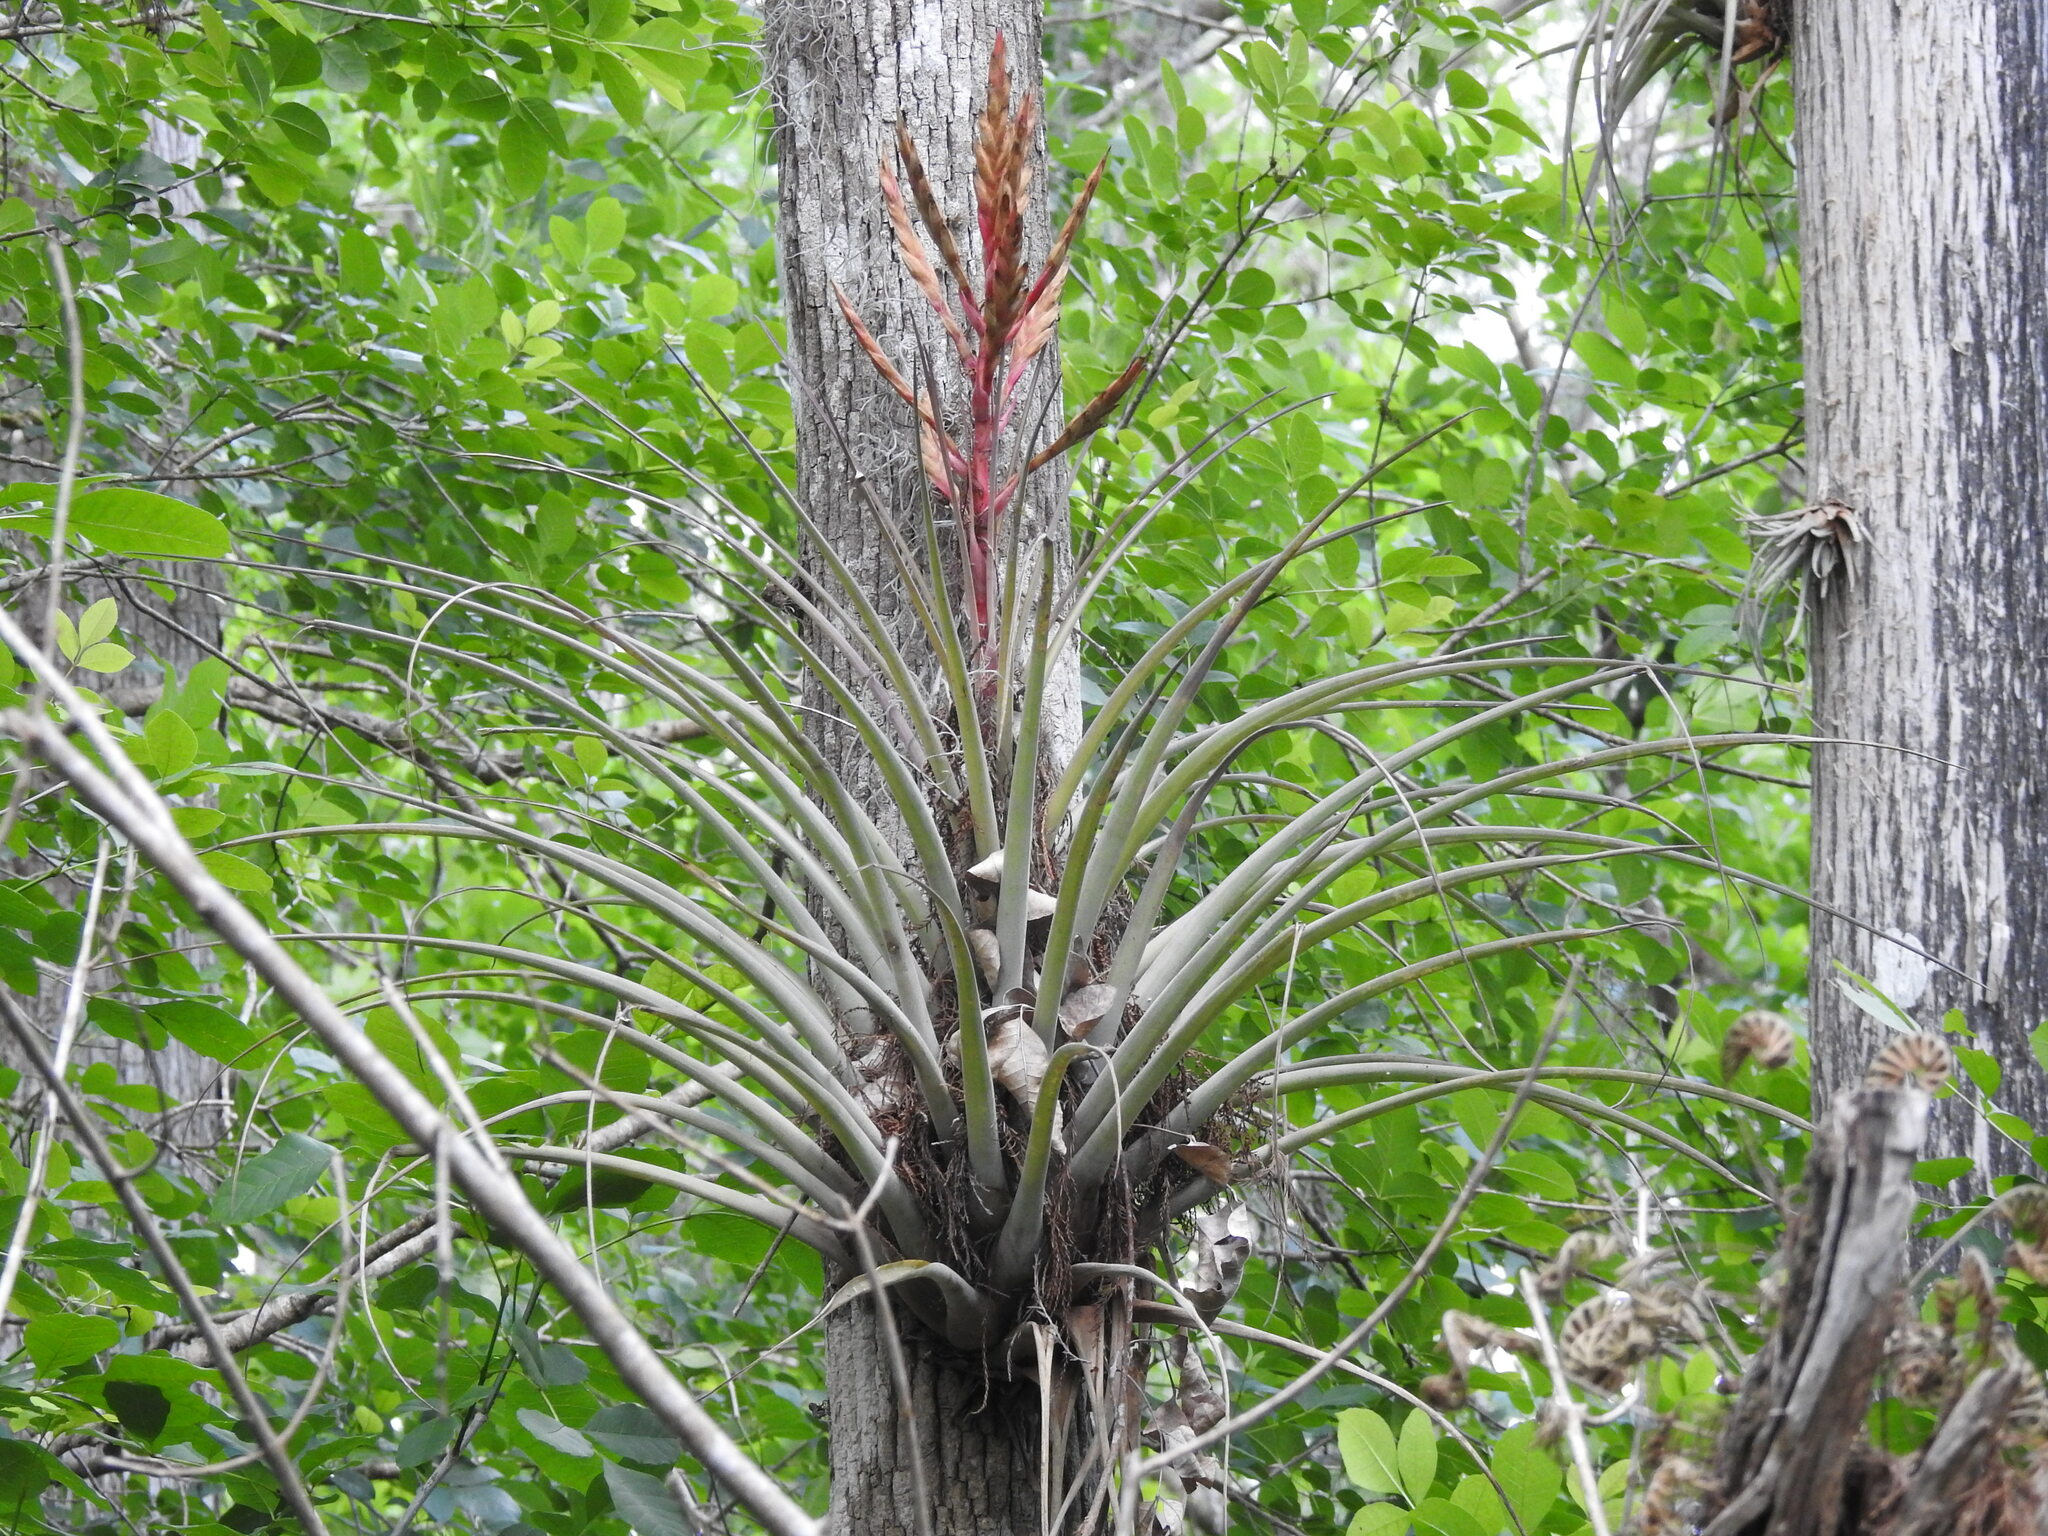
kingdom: Plantae
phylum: Tracheophyta
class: Liliopsida
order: Poales
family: Bromeliaceae
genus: Tillandsia
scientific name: Tillandsia fasciculata
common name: Giant airplant
